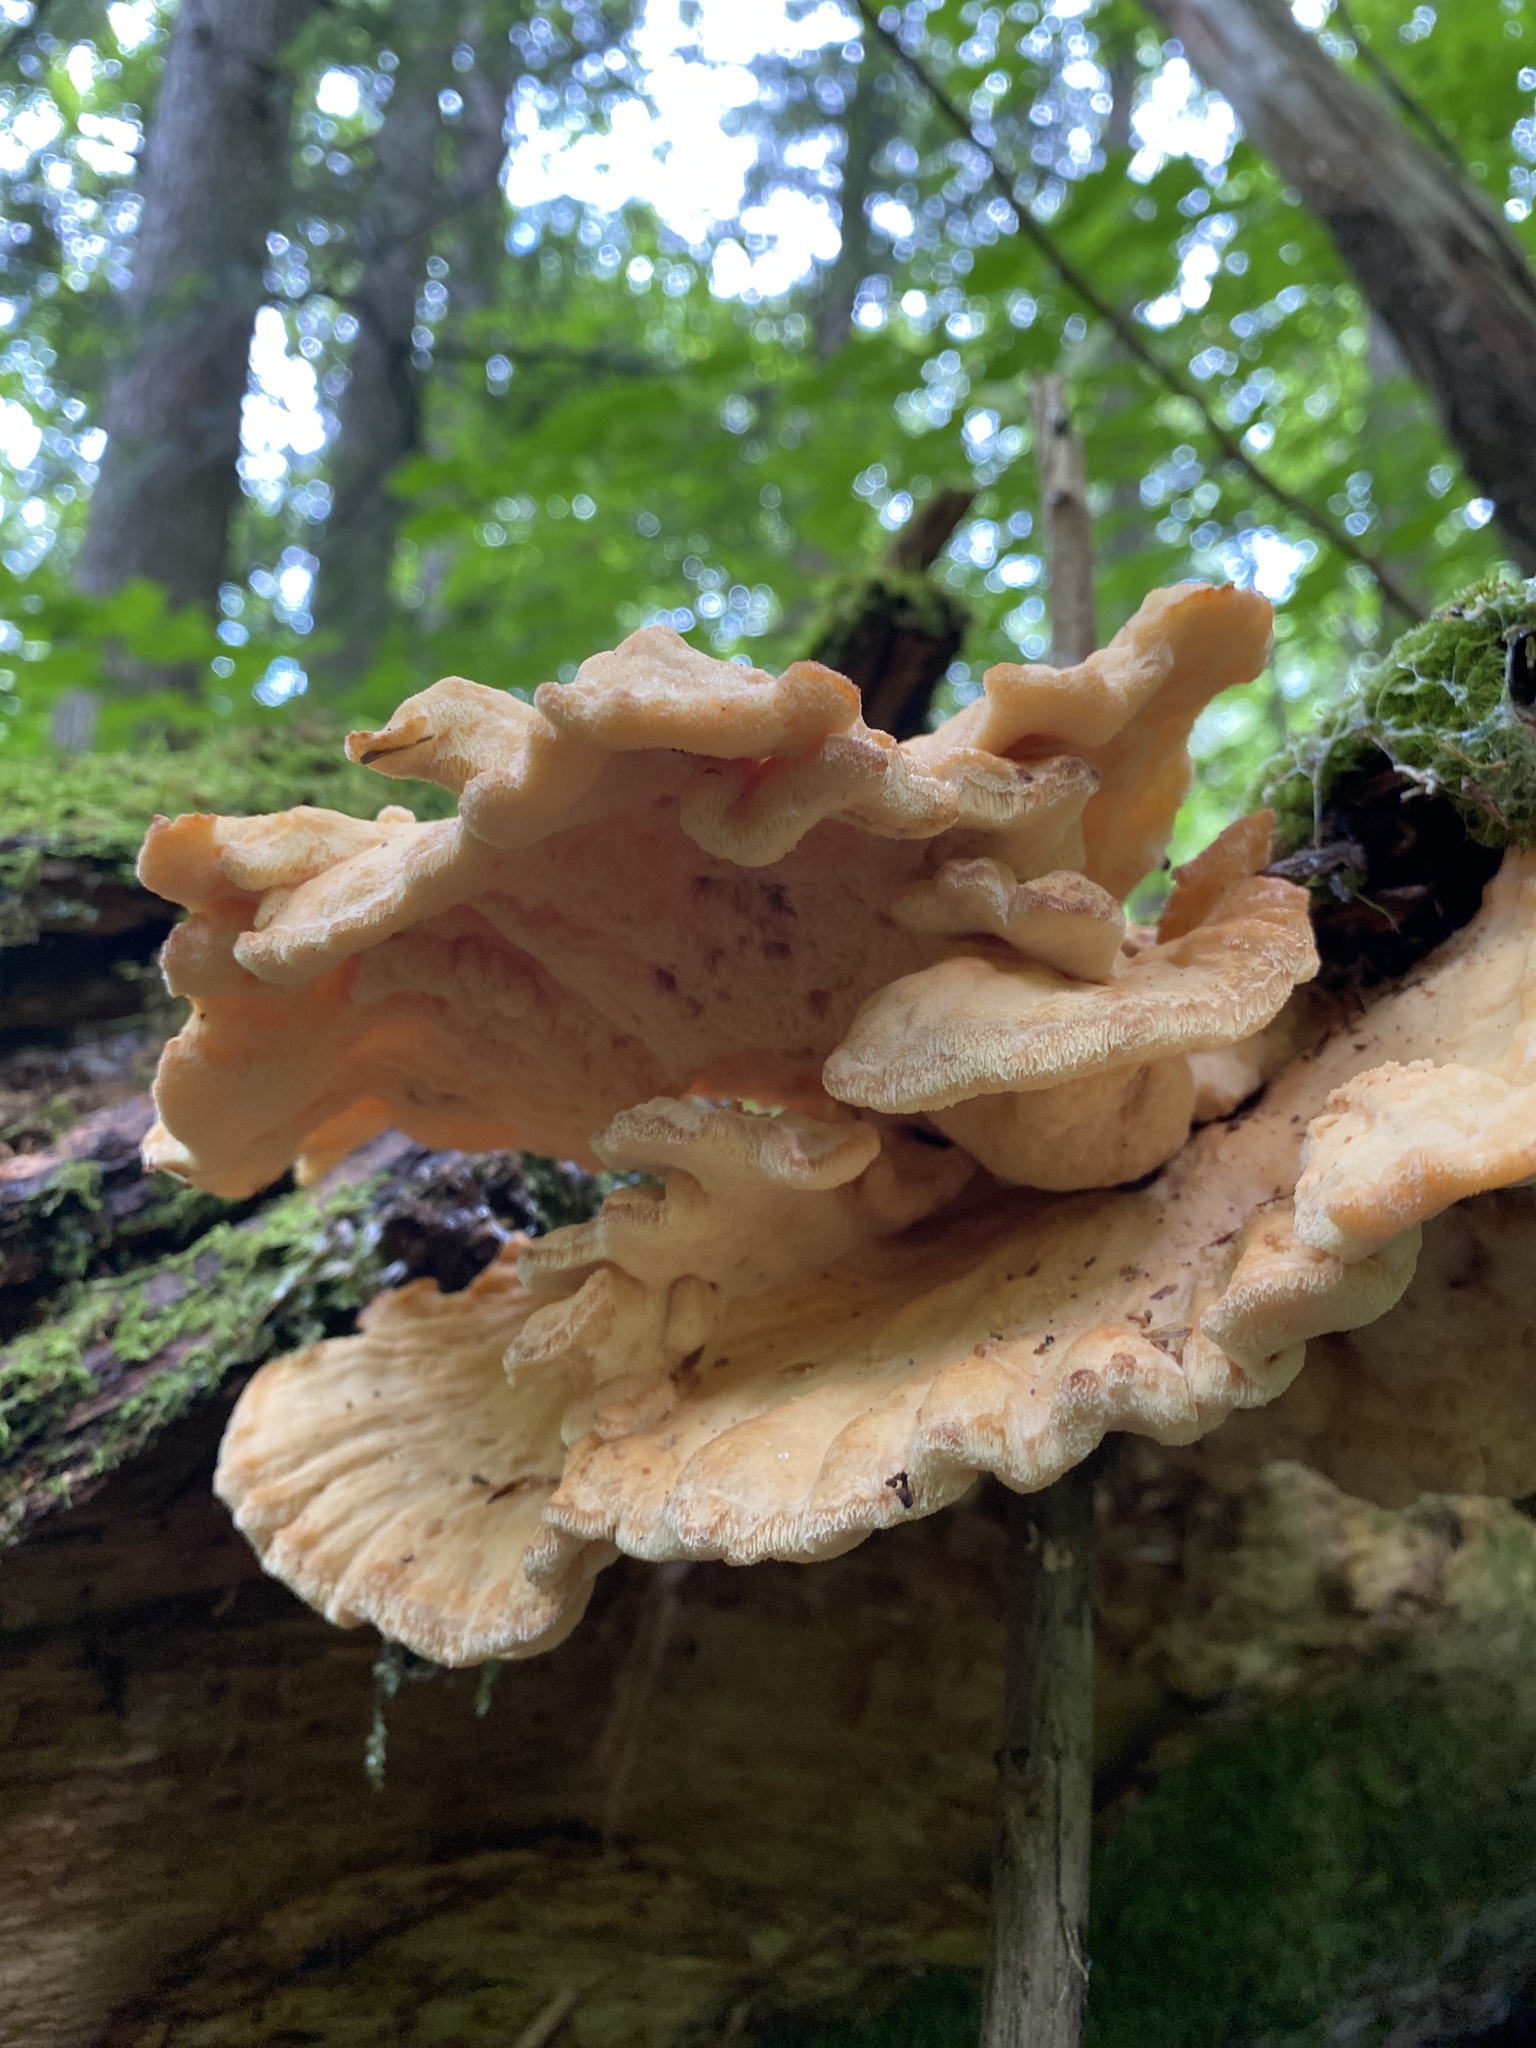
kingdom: Fungi
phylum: Basidiomycota
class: Agaricomycetes
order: Polyporales
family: Laetiporaceae
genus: Laetiporus
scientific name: Laetiporus sulphureus
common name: Chicken of the woods
